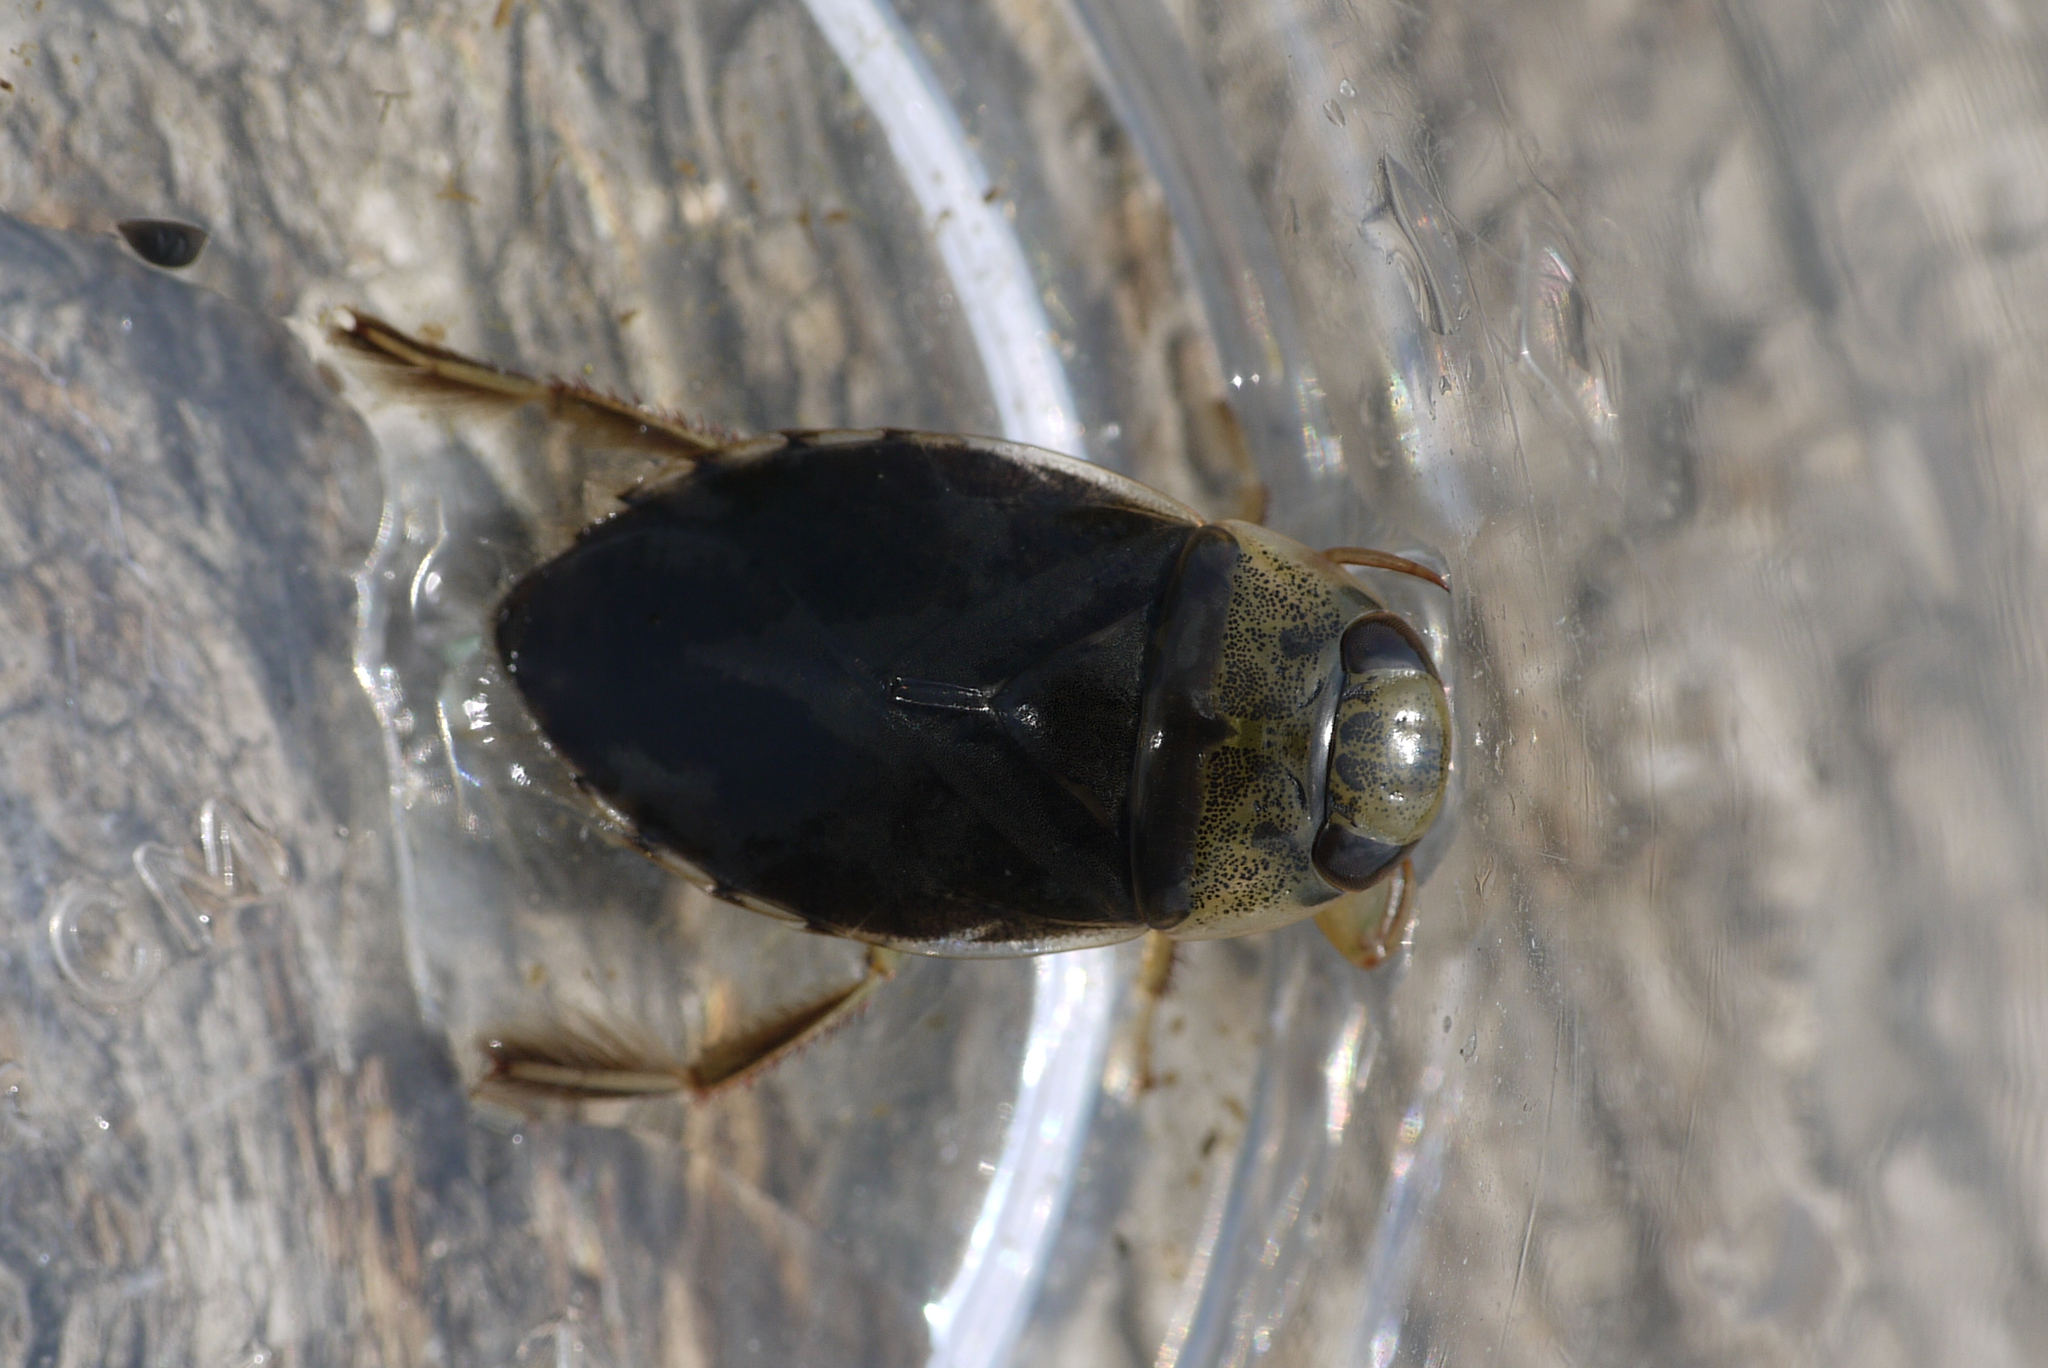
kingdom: Animalia
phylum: Arthropoda
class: Insecta
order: Hemiptera
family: Naucoridae
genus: Ilyocoris
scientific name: Ilyocoris cimicoides
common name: Saucer bugs
